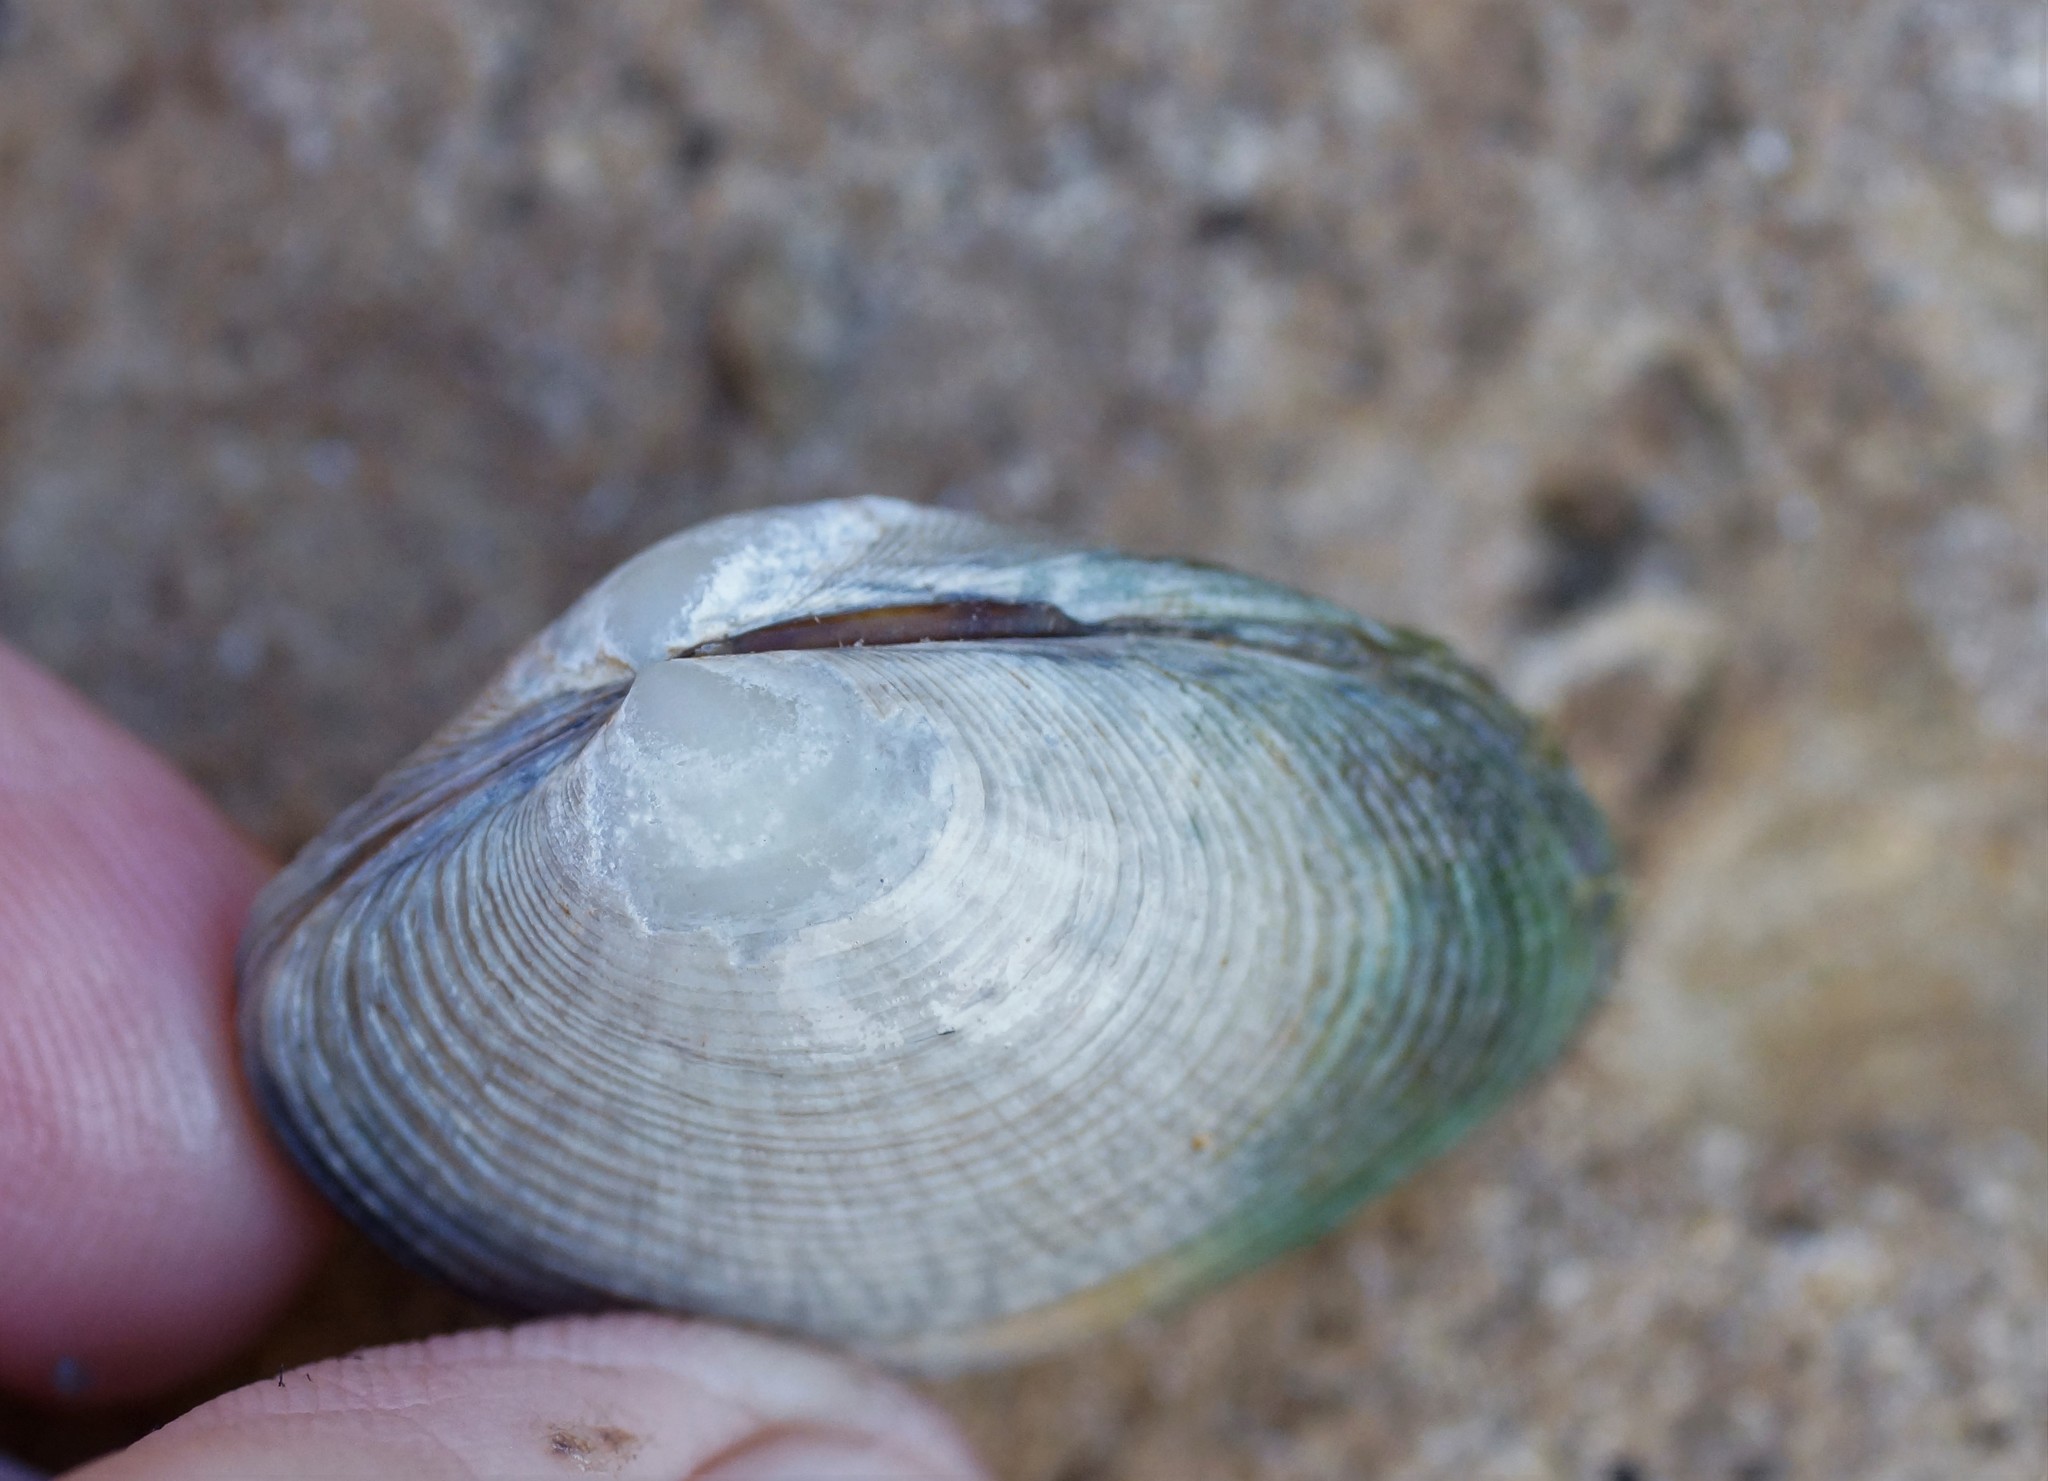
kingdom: Animalia
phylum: Mollusca
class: Bivalvia
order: Venerida
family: Veneridae
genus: Katelysia
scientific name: Katelysia rhytiphora
